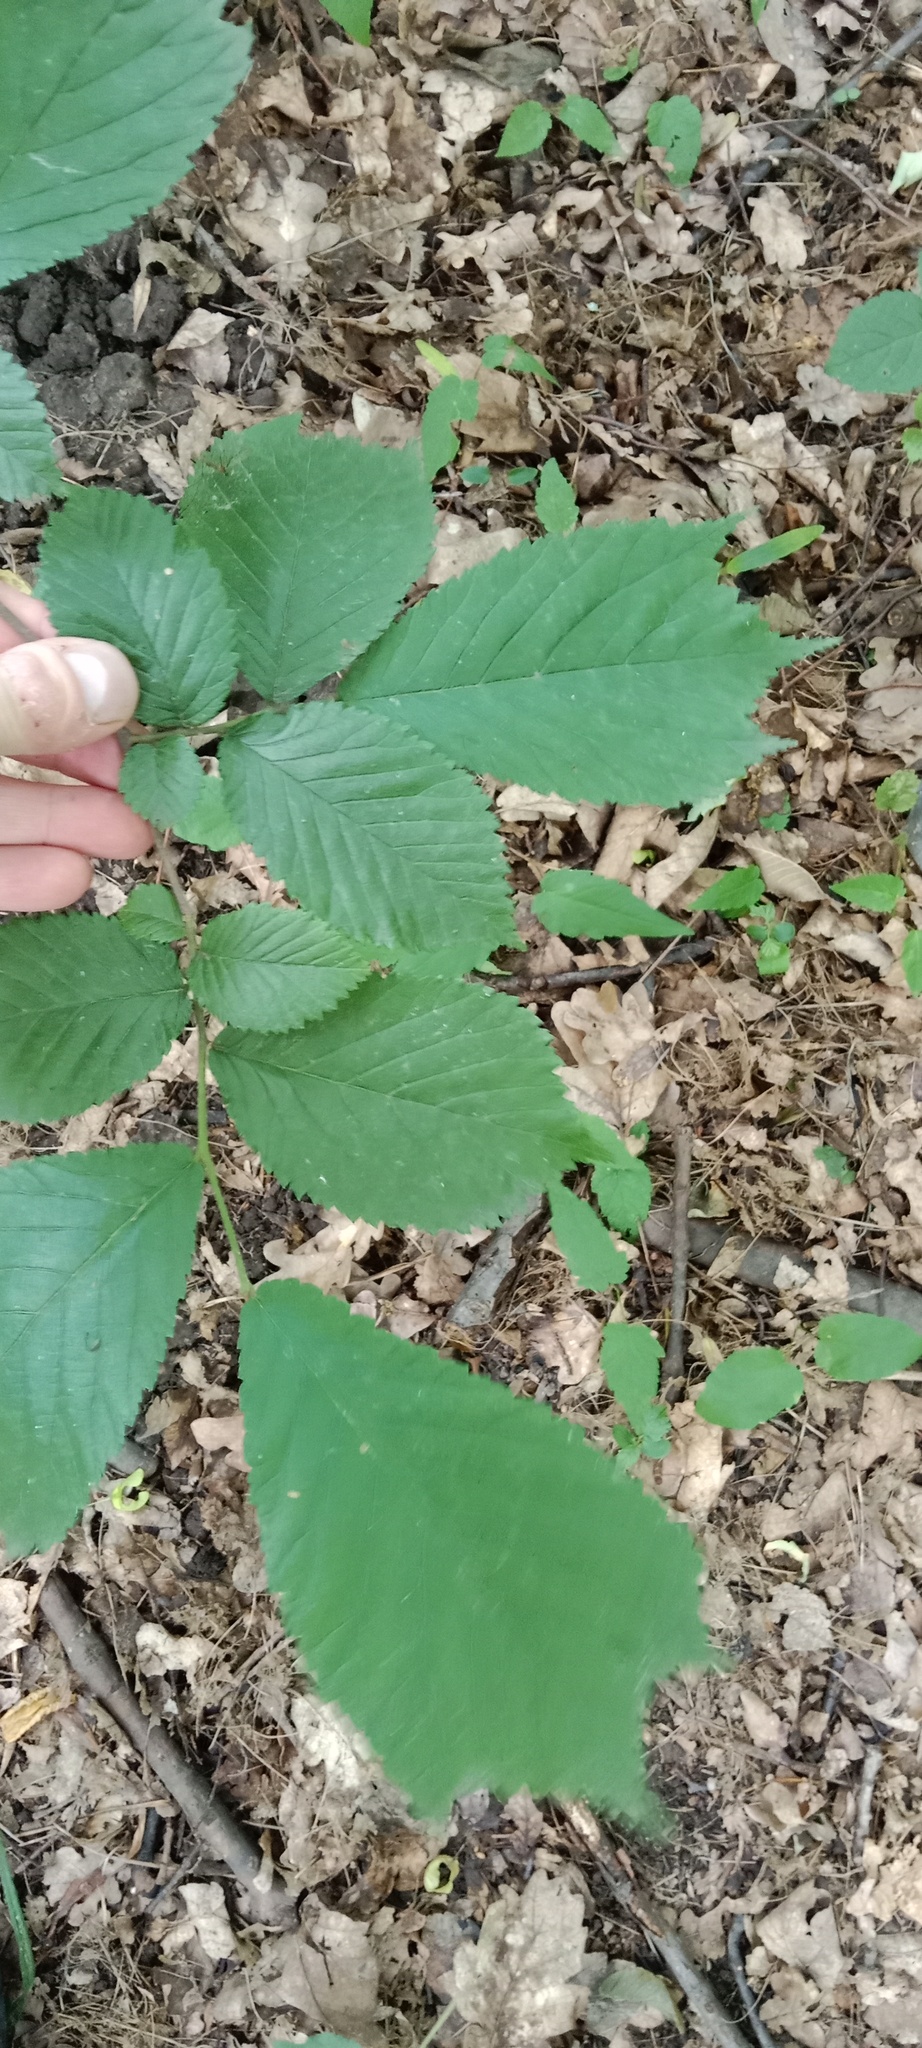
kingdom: Plantae
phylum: Tracheophyta
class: Magnoliopsida
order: Rosales
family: Ulmaceae
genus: Ulmus
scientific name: Ulmus glabra
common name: Wych elm
